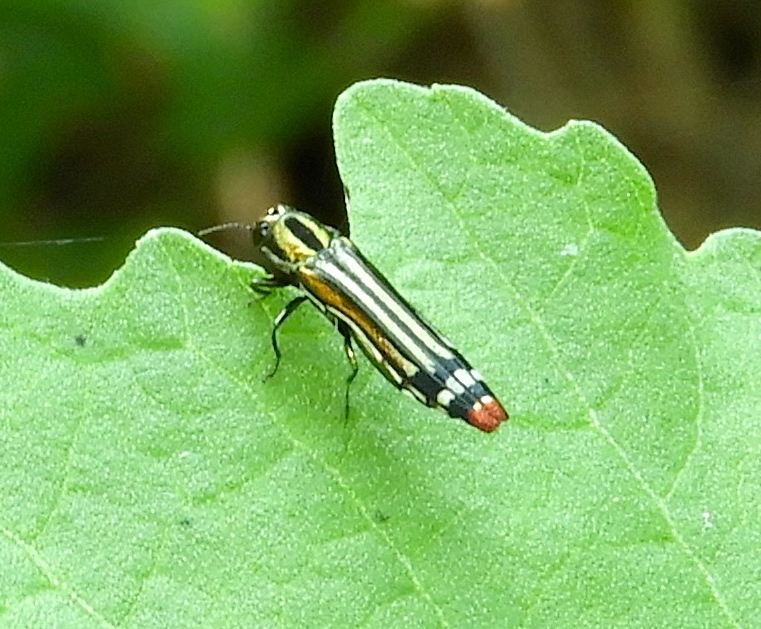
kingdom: Animalia
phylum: Arthropoda
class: Insecta
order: Coleoptera
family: Buprestidae
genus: Agrilus
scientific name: Agrilus catherinae
